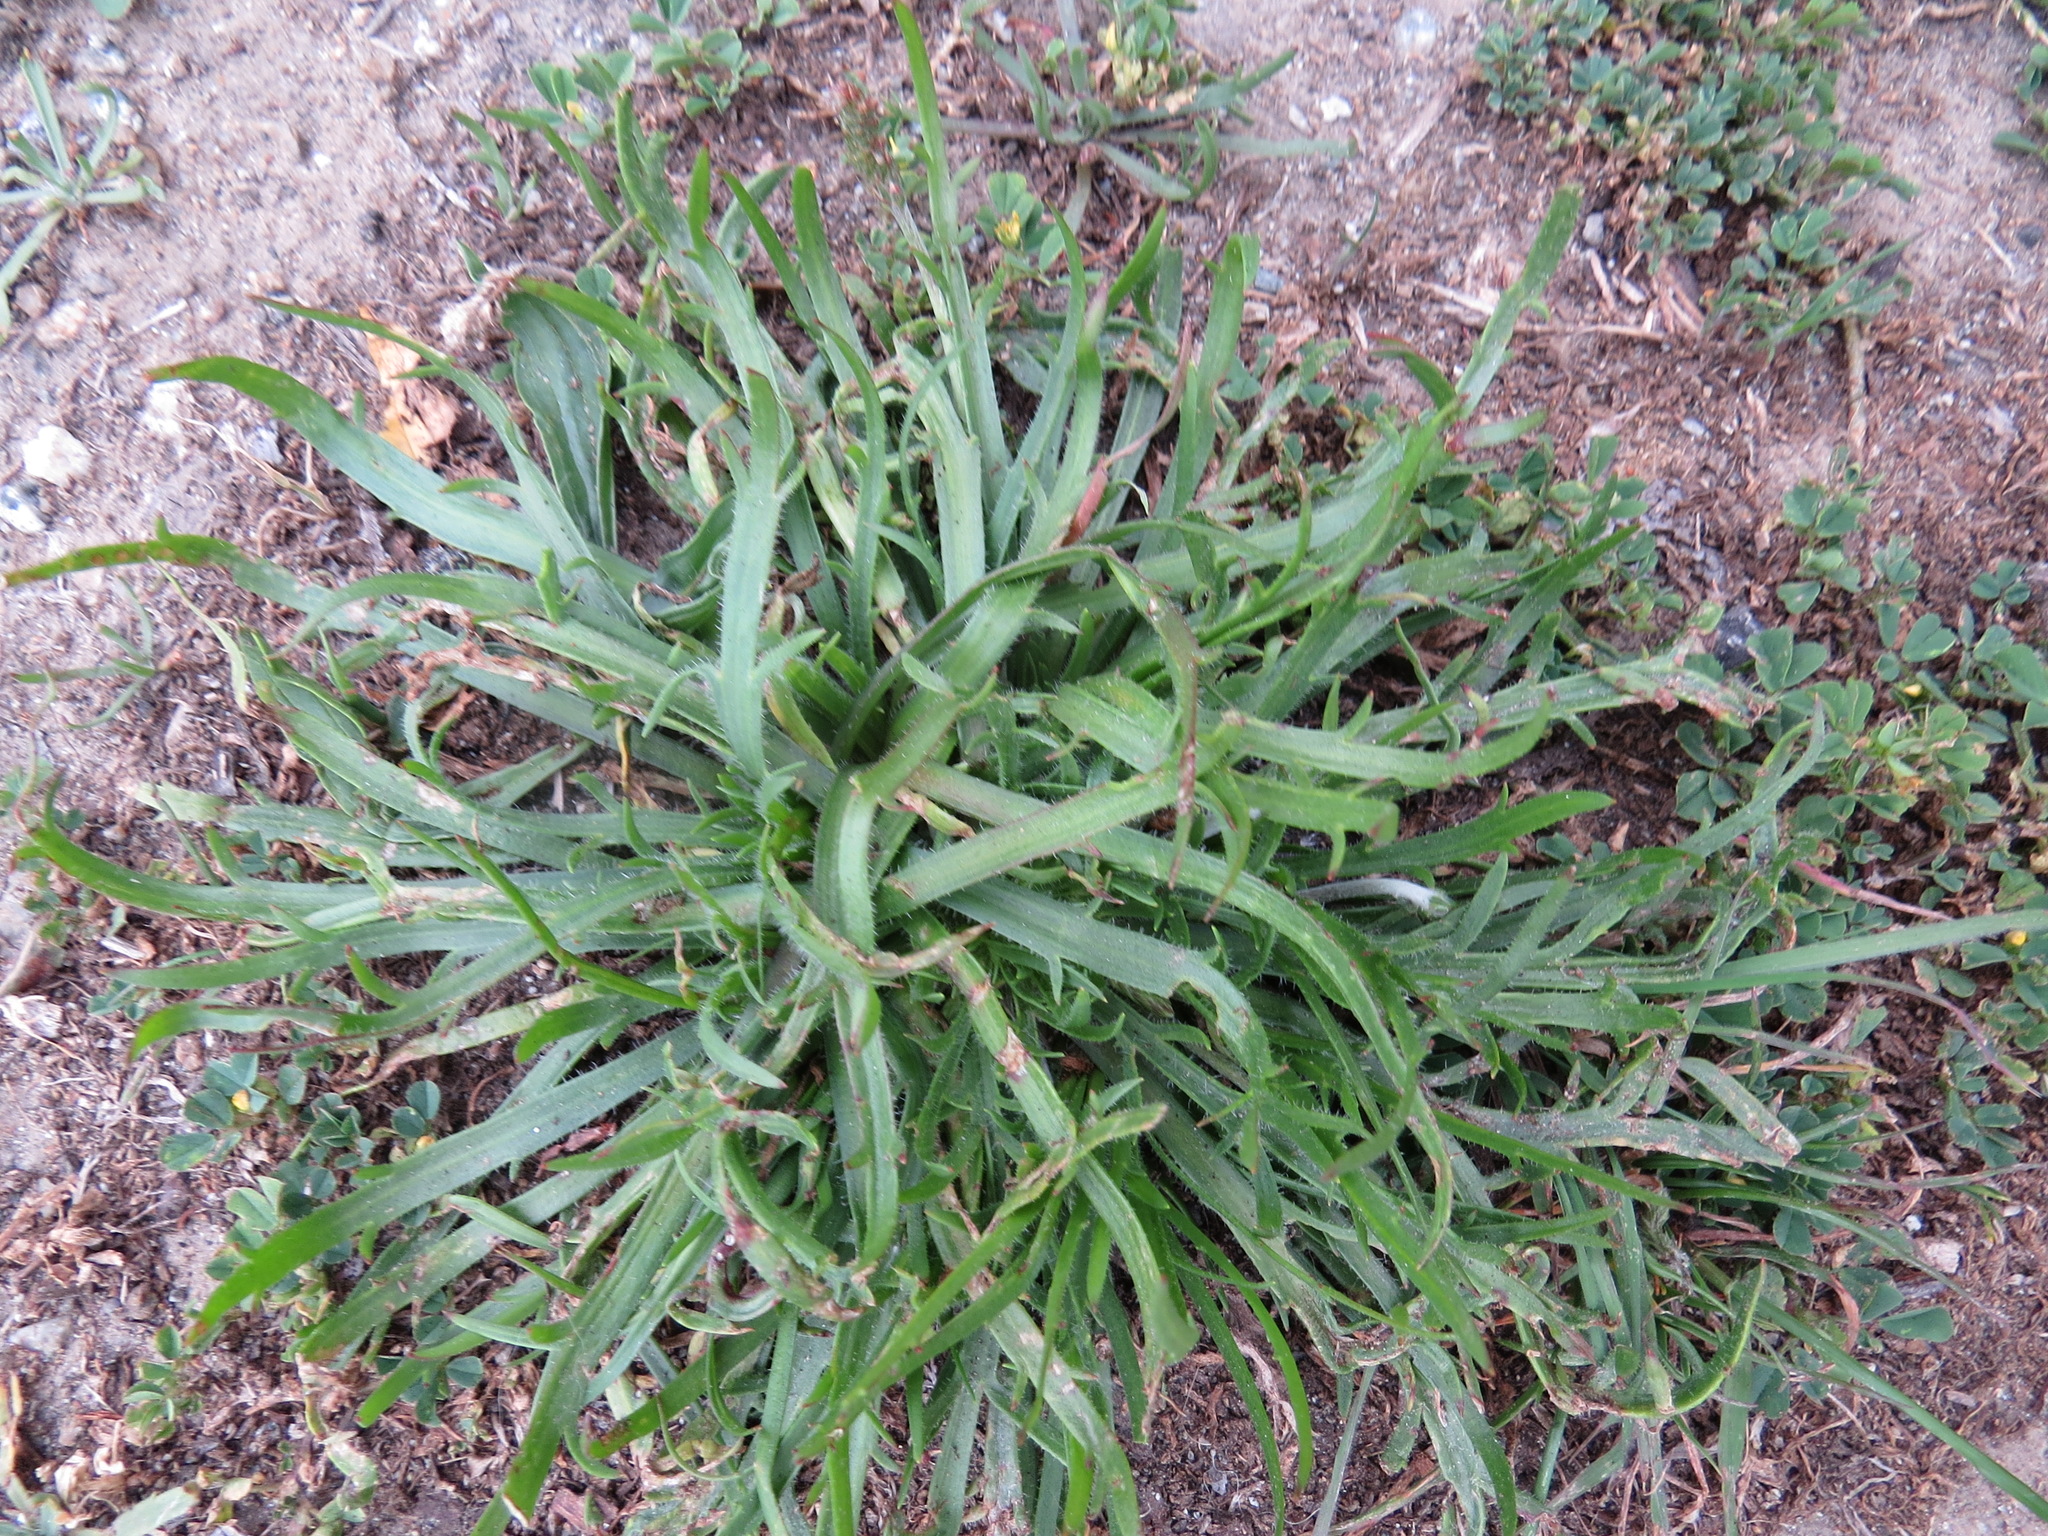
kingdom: Plantae
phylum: Tracheophyta
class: Magnoliopsida
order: Lamiales
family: Plantaginaceae
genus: Plantago
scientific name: Plantago coronopus
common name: Buck's-horn plantain
